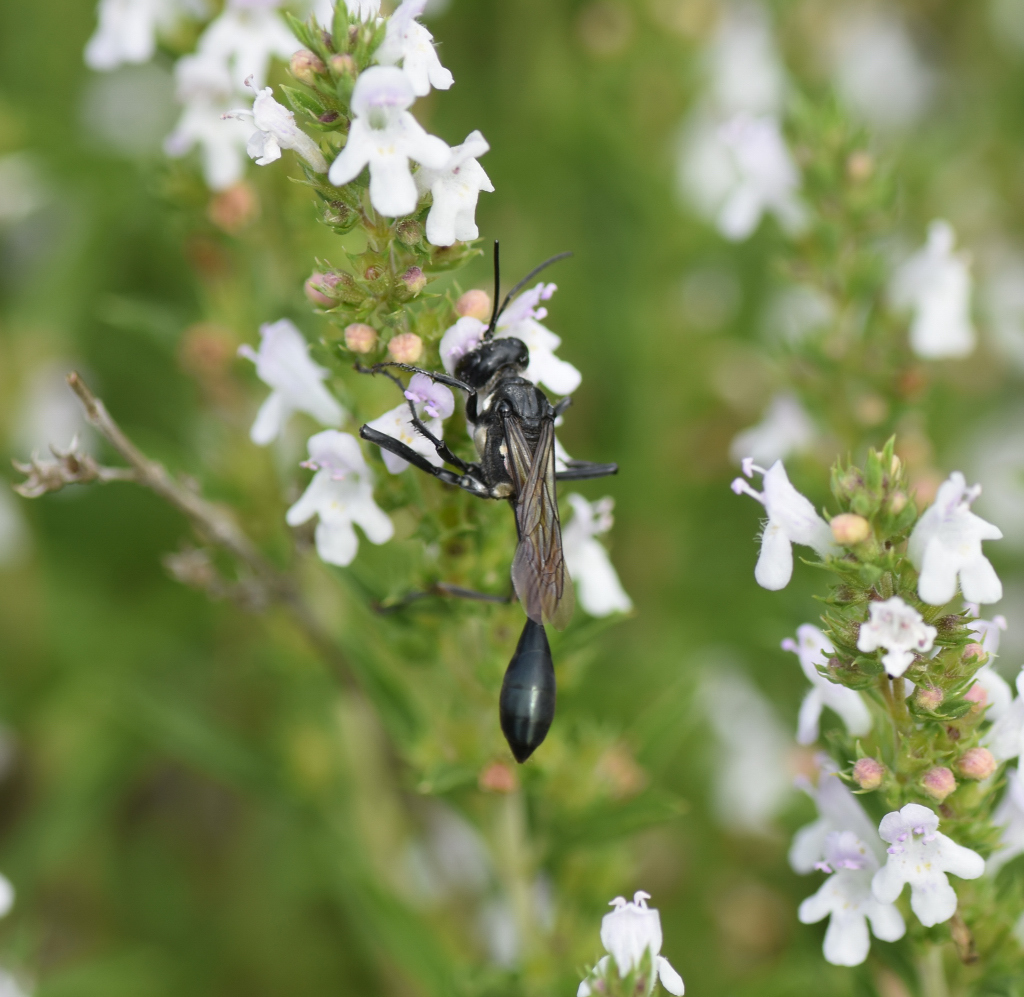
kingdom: Animalia
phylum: Arthropoda
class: Insecta
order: Hymenoptera
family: Sphecidae
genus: Eremnophila
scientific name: Eremnophila aureonotata
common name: Gold-marked thread-waisted wasp
